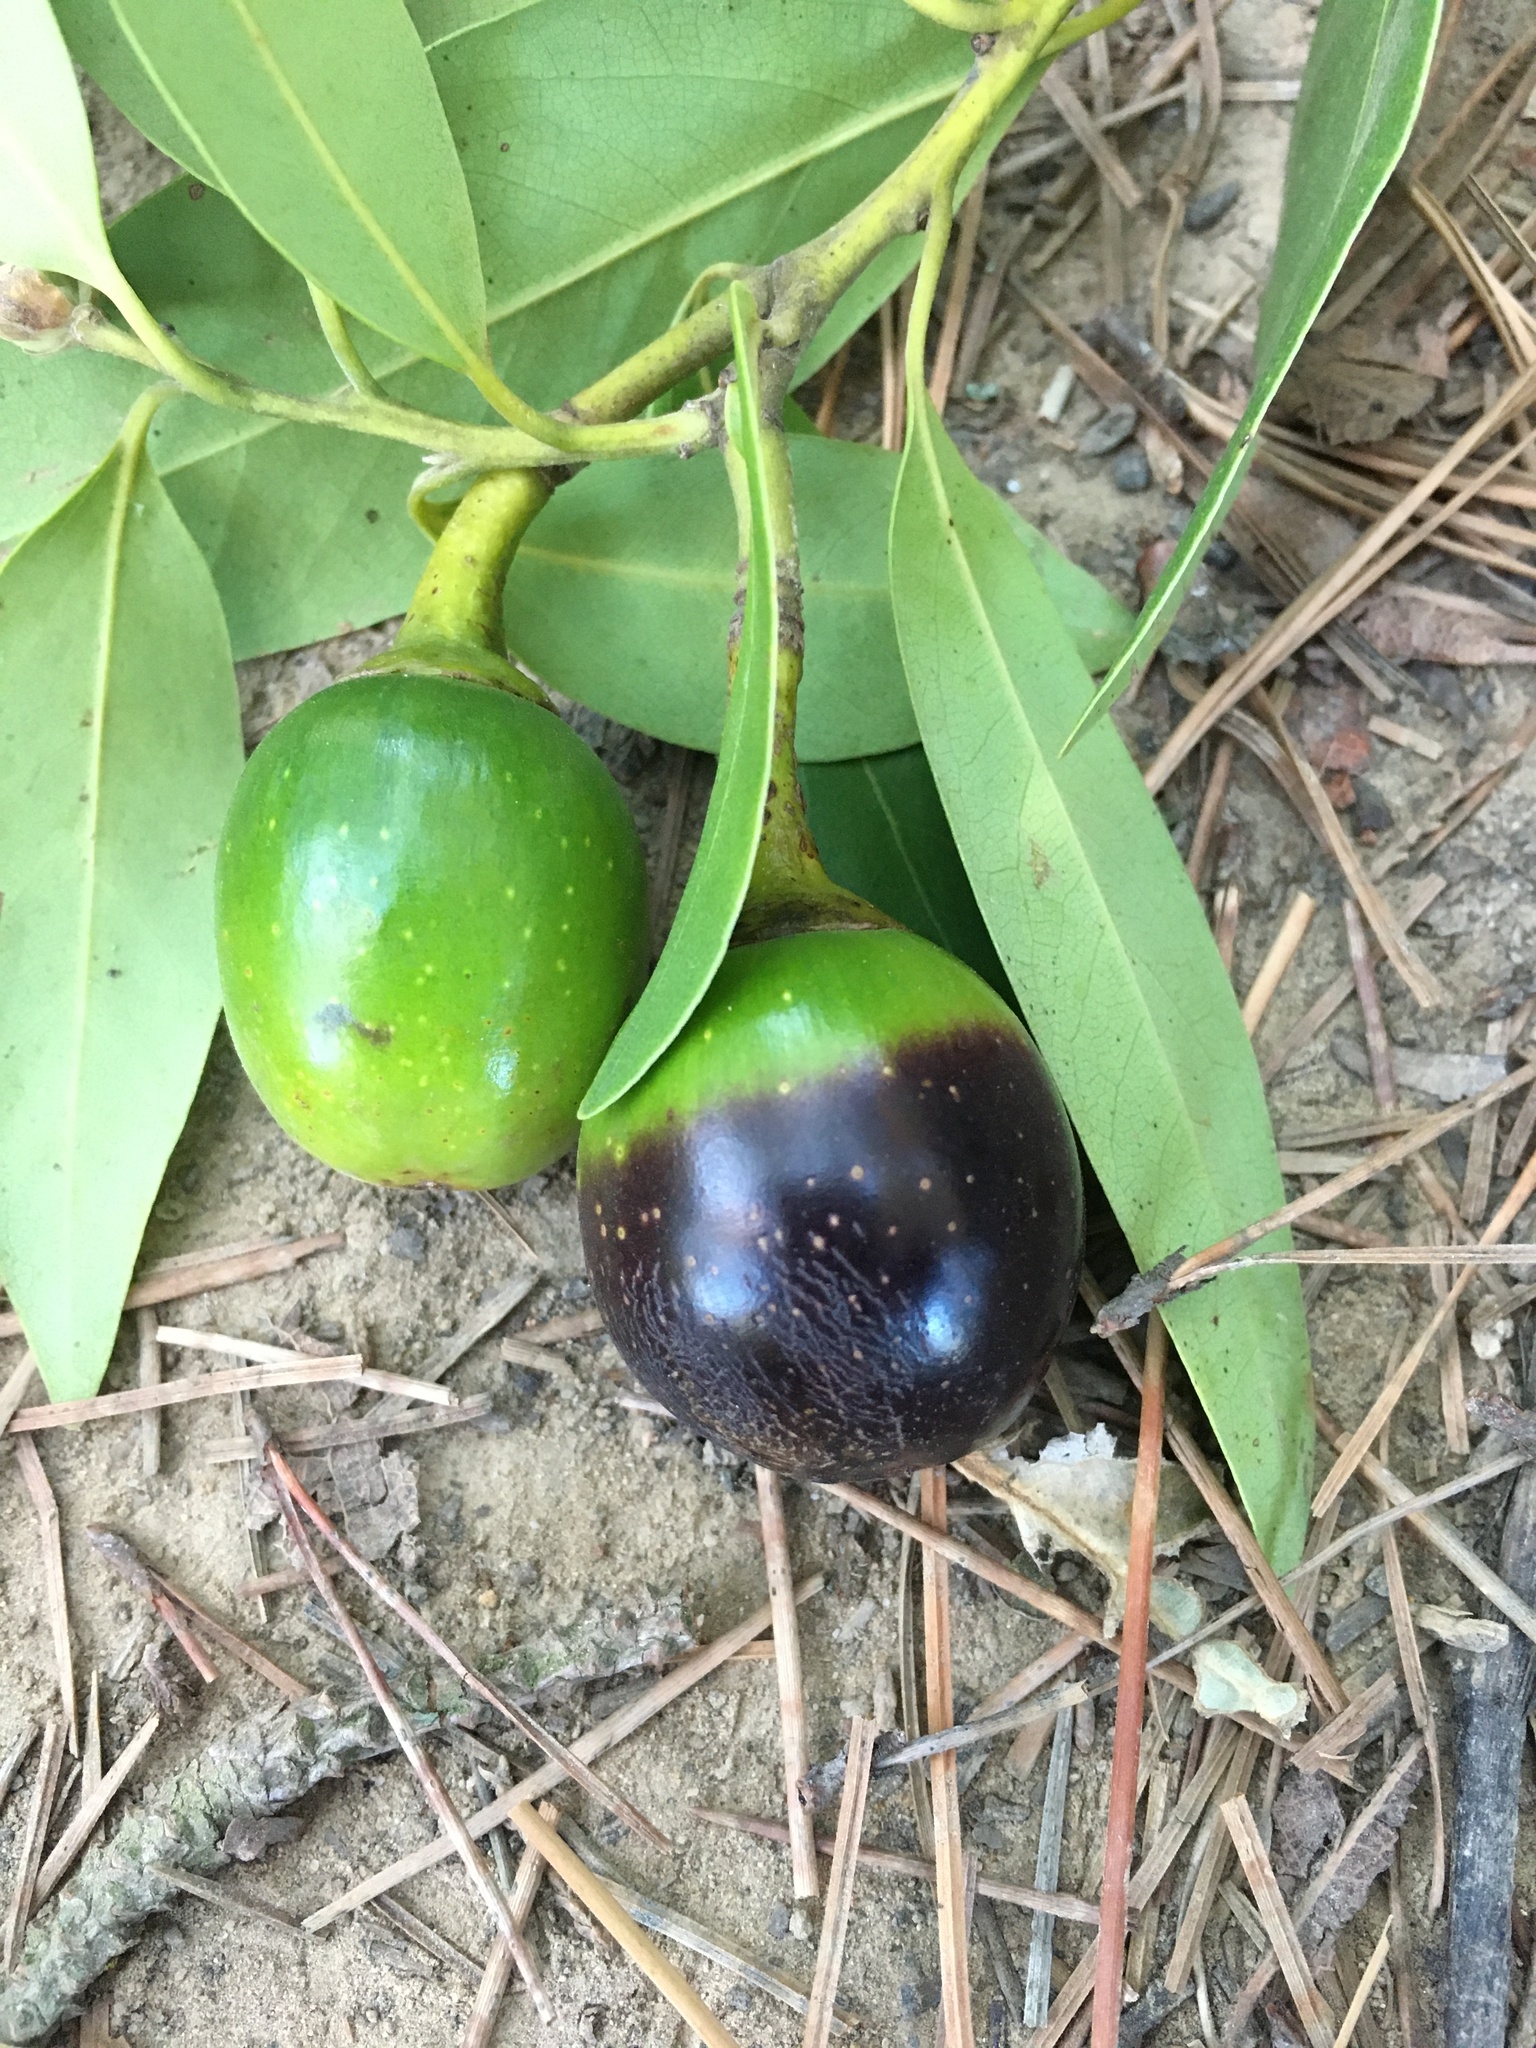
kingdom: Plantae
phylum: Tracheophyta
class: Magnoliopsida
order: Laurales
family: Lauraceae
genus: Umbellularia
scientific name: Umbellularia californica
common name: California bay
